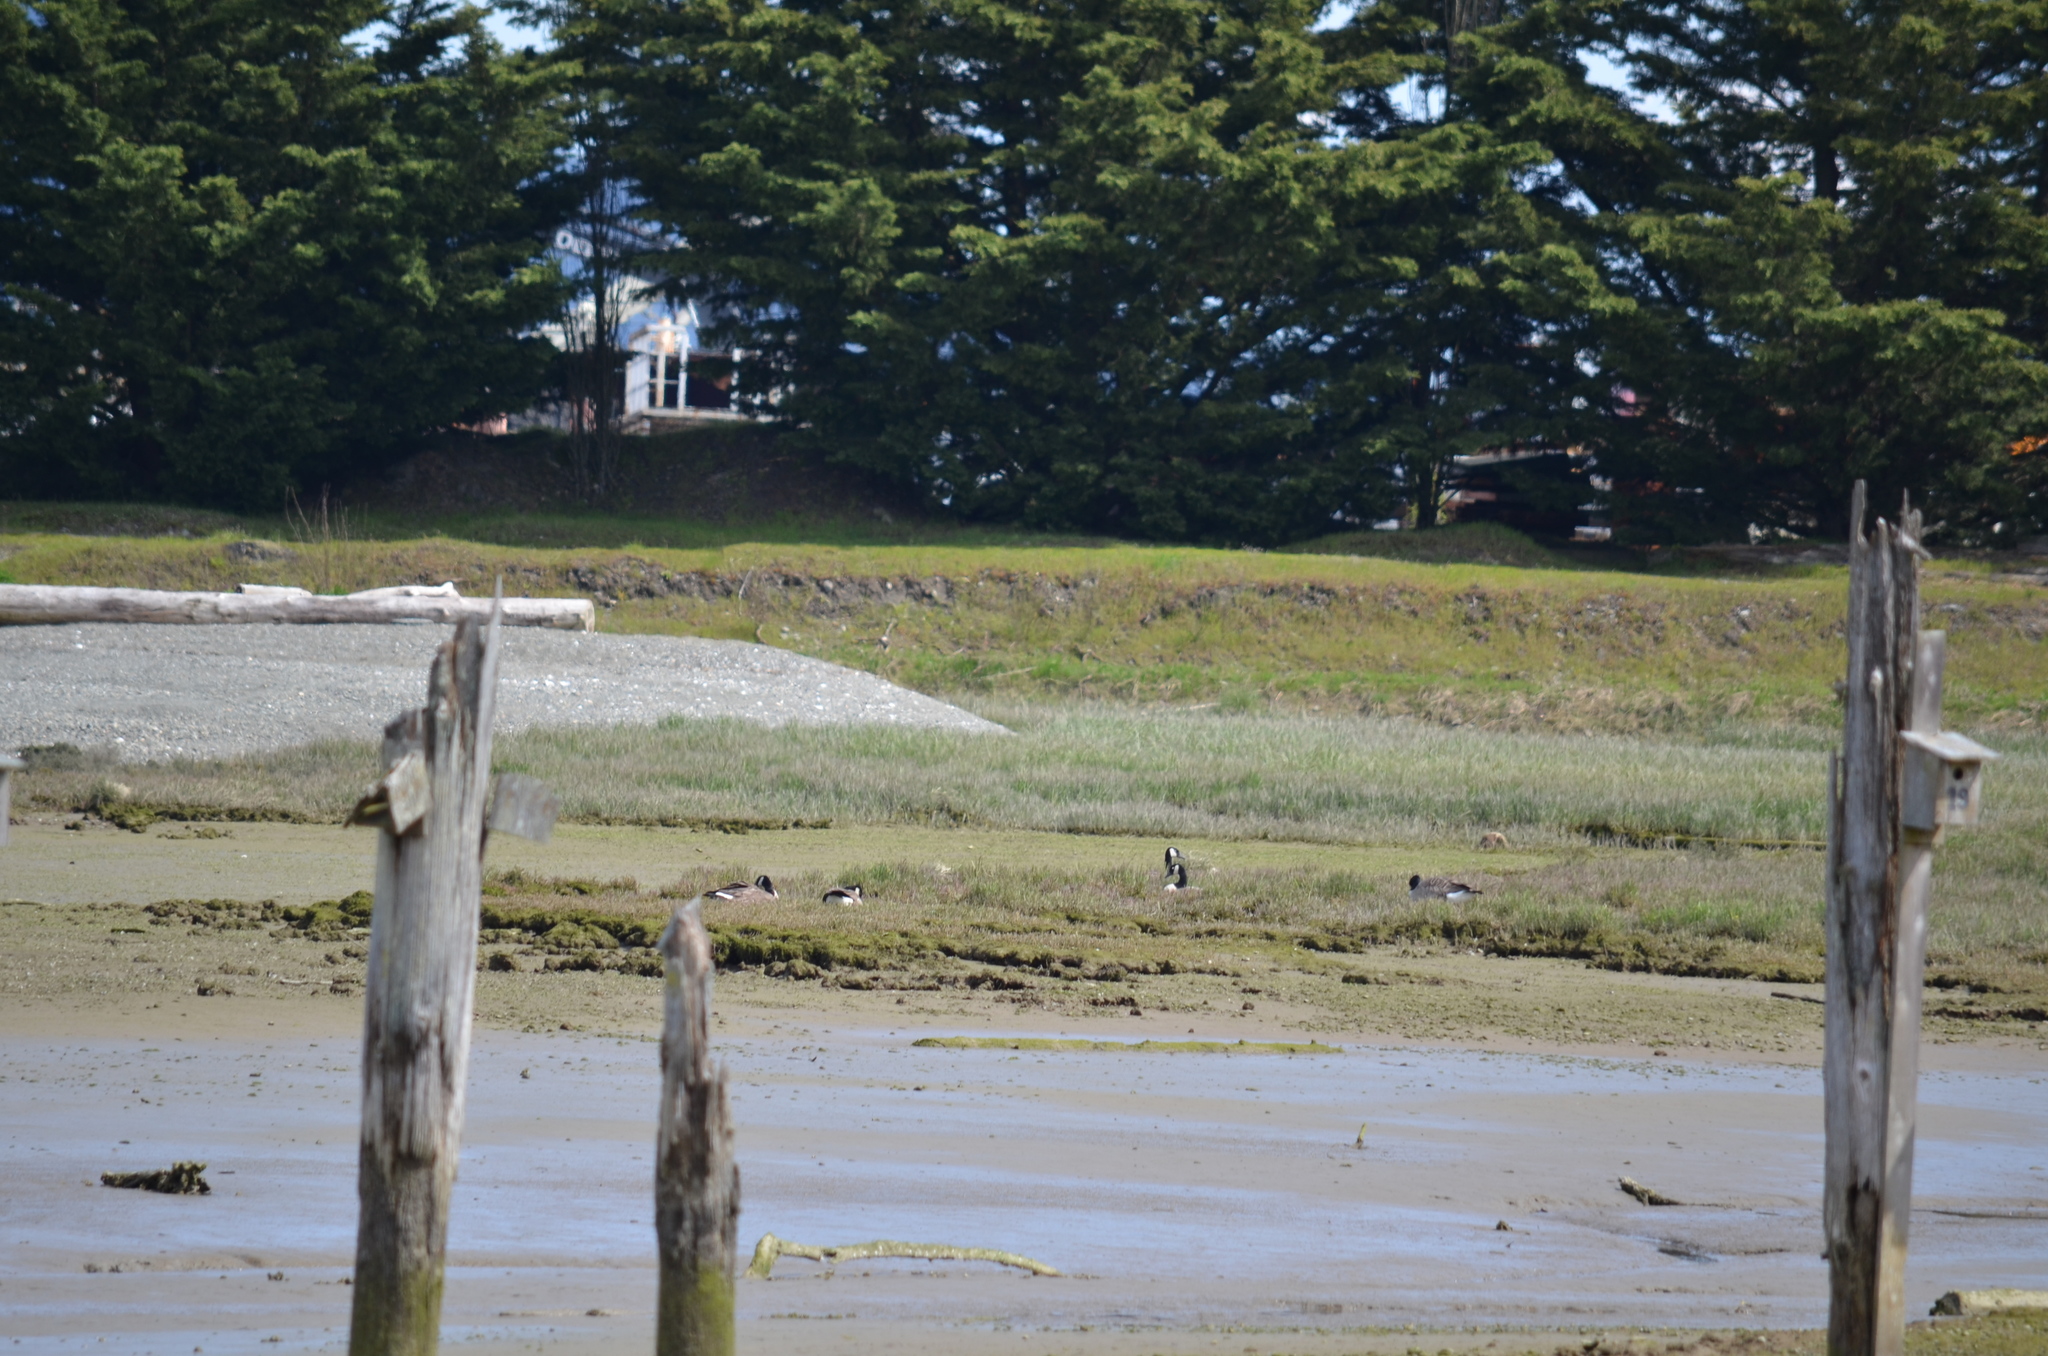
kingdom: Animalia
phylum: Chordata
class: Aves
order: Anseriformes
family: Anatidae
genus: Branta
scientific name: Branta canadensis
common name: Canada goose
